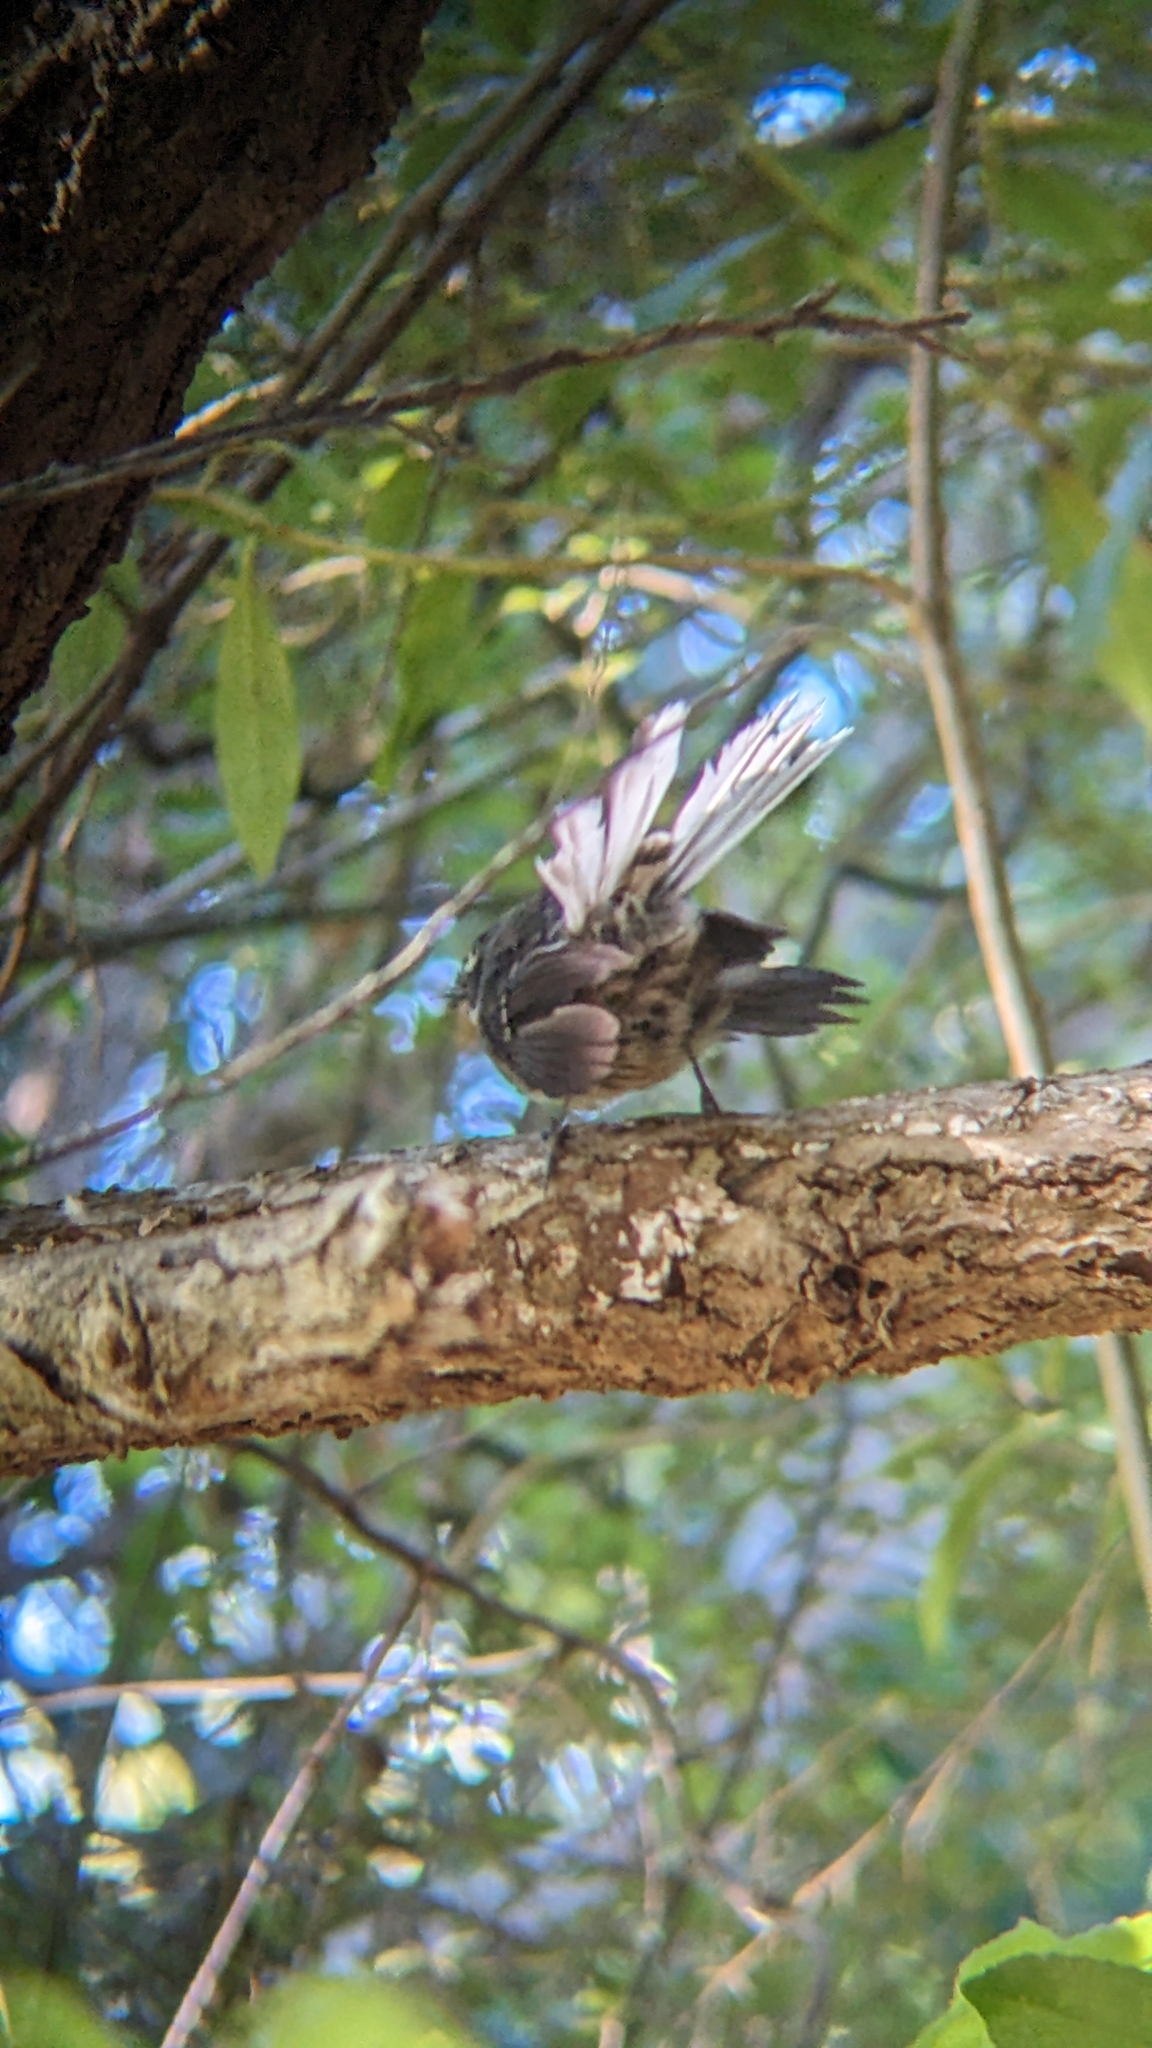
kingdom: Animalia
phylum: Chordata
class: Aves
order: Passeriformes
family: Rhipiduridae
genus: Rhipidura
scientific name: Rhipidura fuliginosa
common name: New zealand fantail
